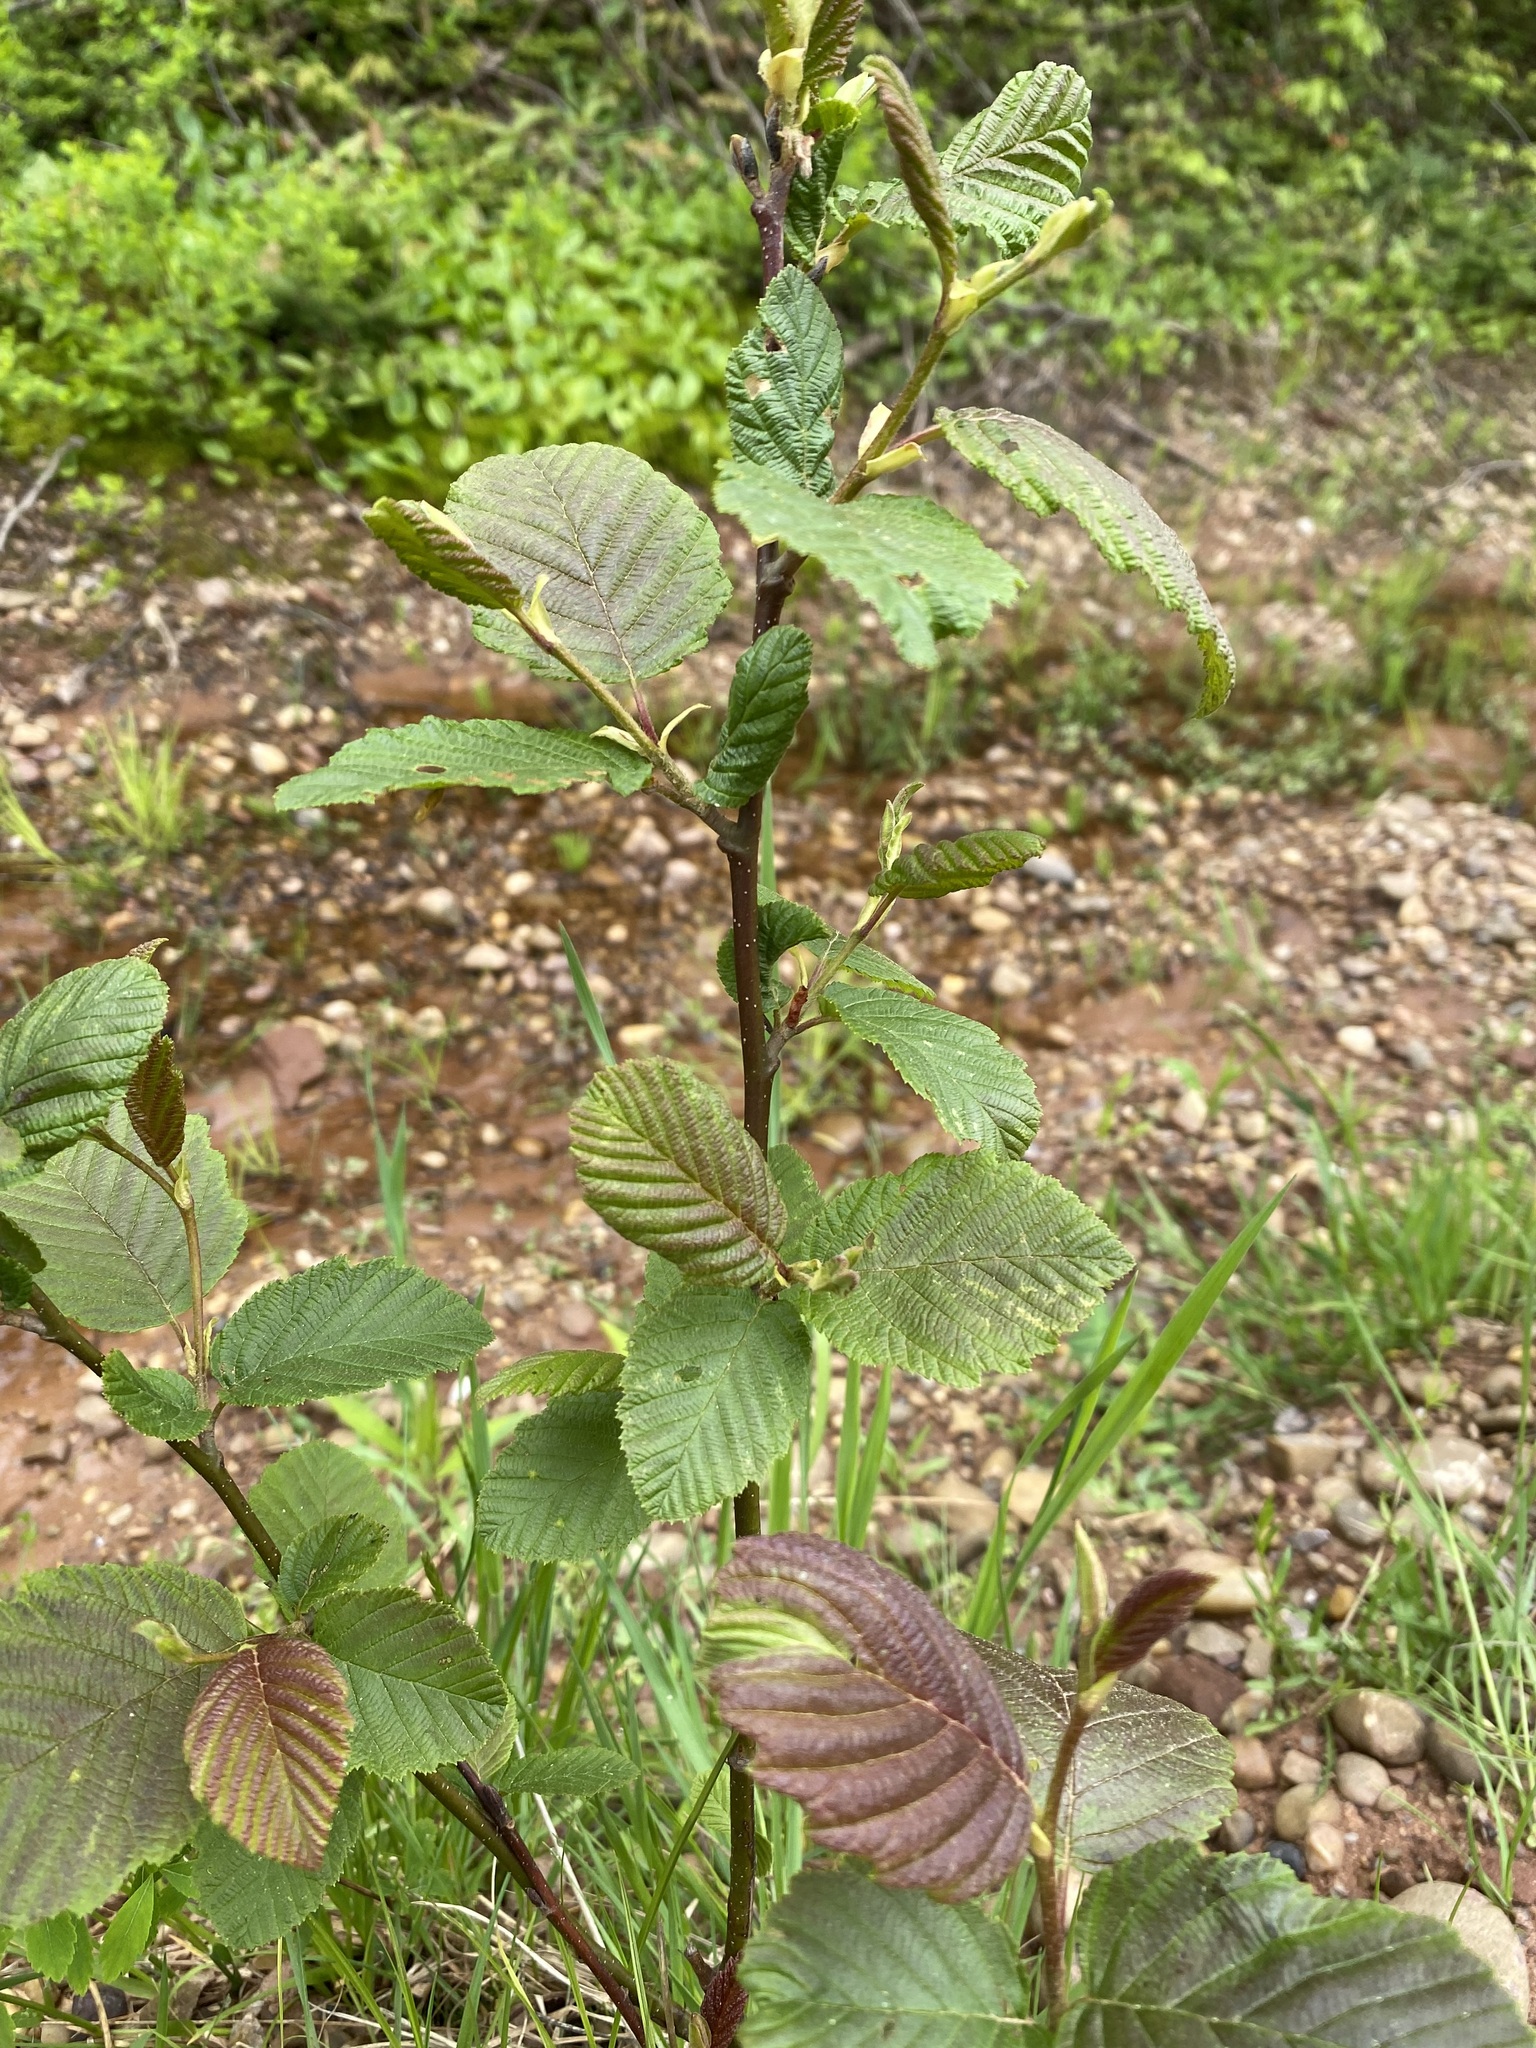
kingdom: Plantae
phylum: Tracheophyta
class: Magnoliopsida
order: Fagales
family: Betulaceae
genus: Alnus
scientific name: Alnus incana
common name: Grey alder
